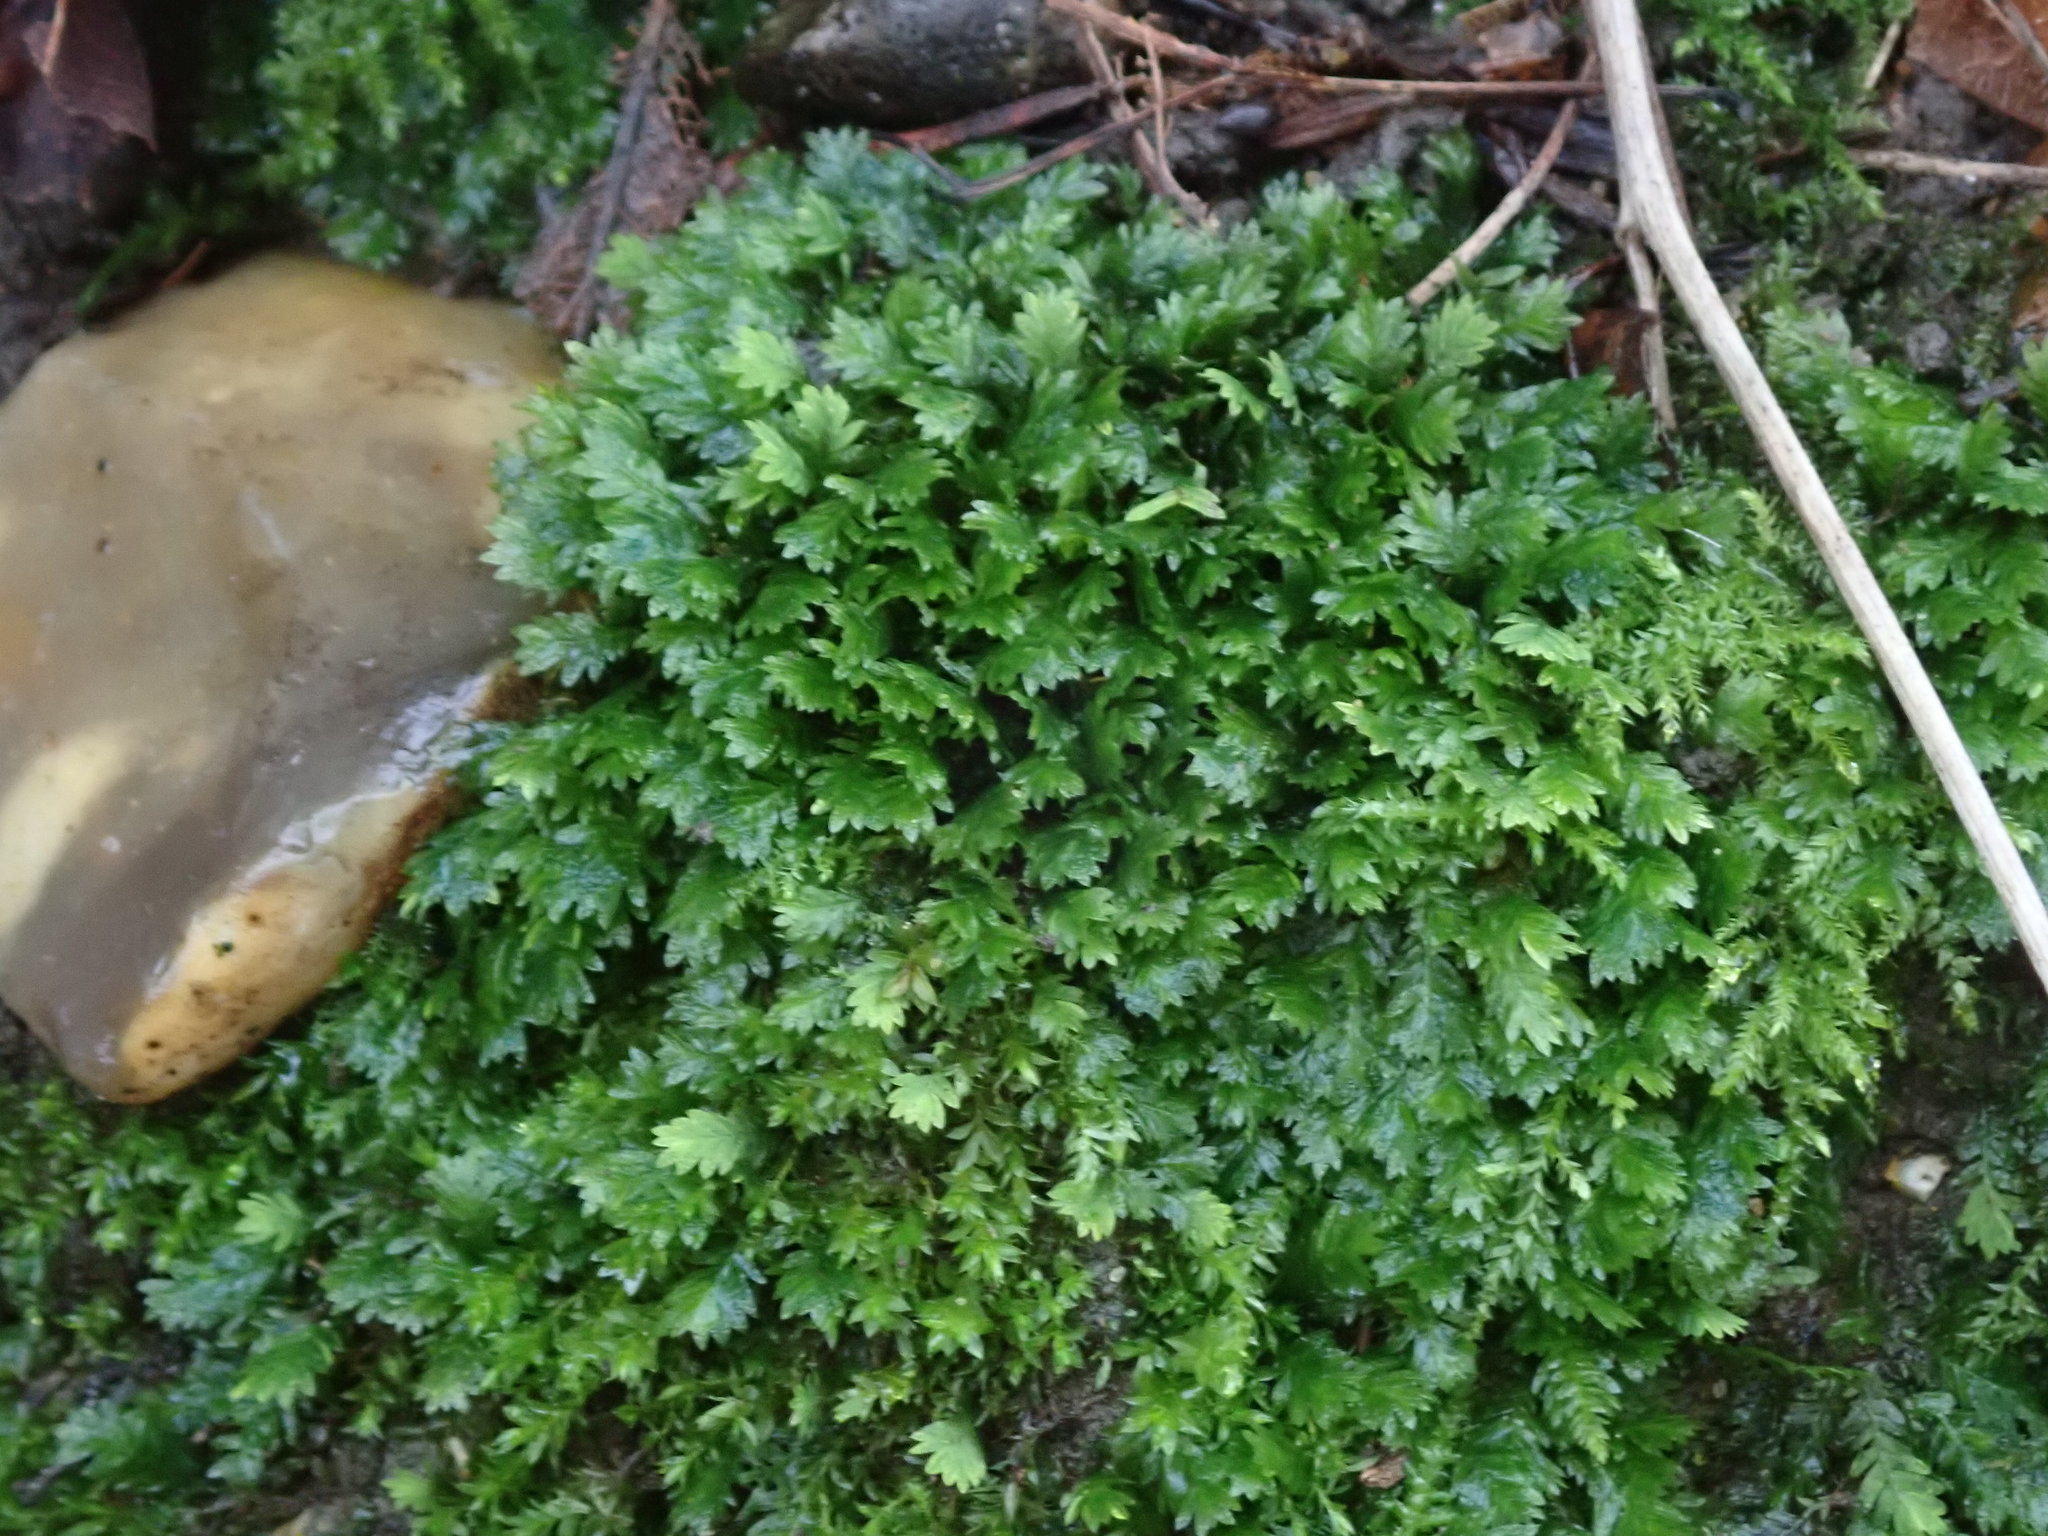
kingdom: Plantae
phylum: Bryophyta
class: Bryopsida
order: Dicranales
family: Fissidentaceae
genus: Fissidens
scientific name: Fissidens taxifolius
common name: Yew-leaved pocket moss
